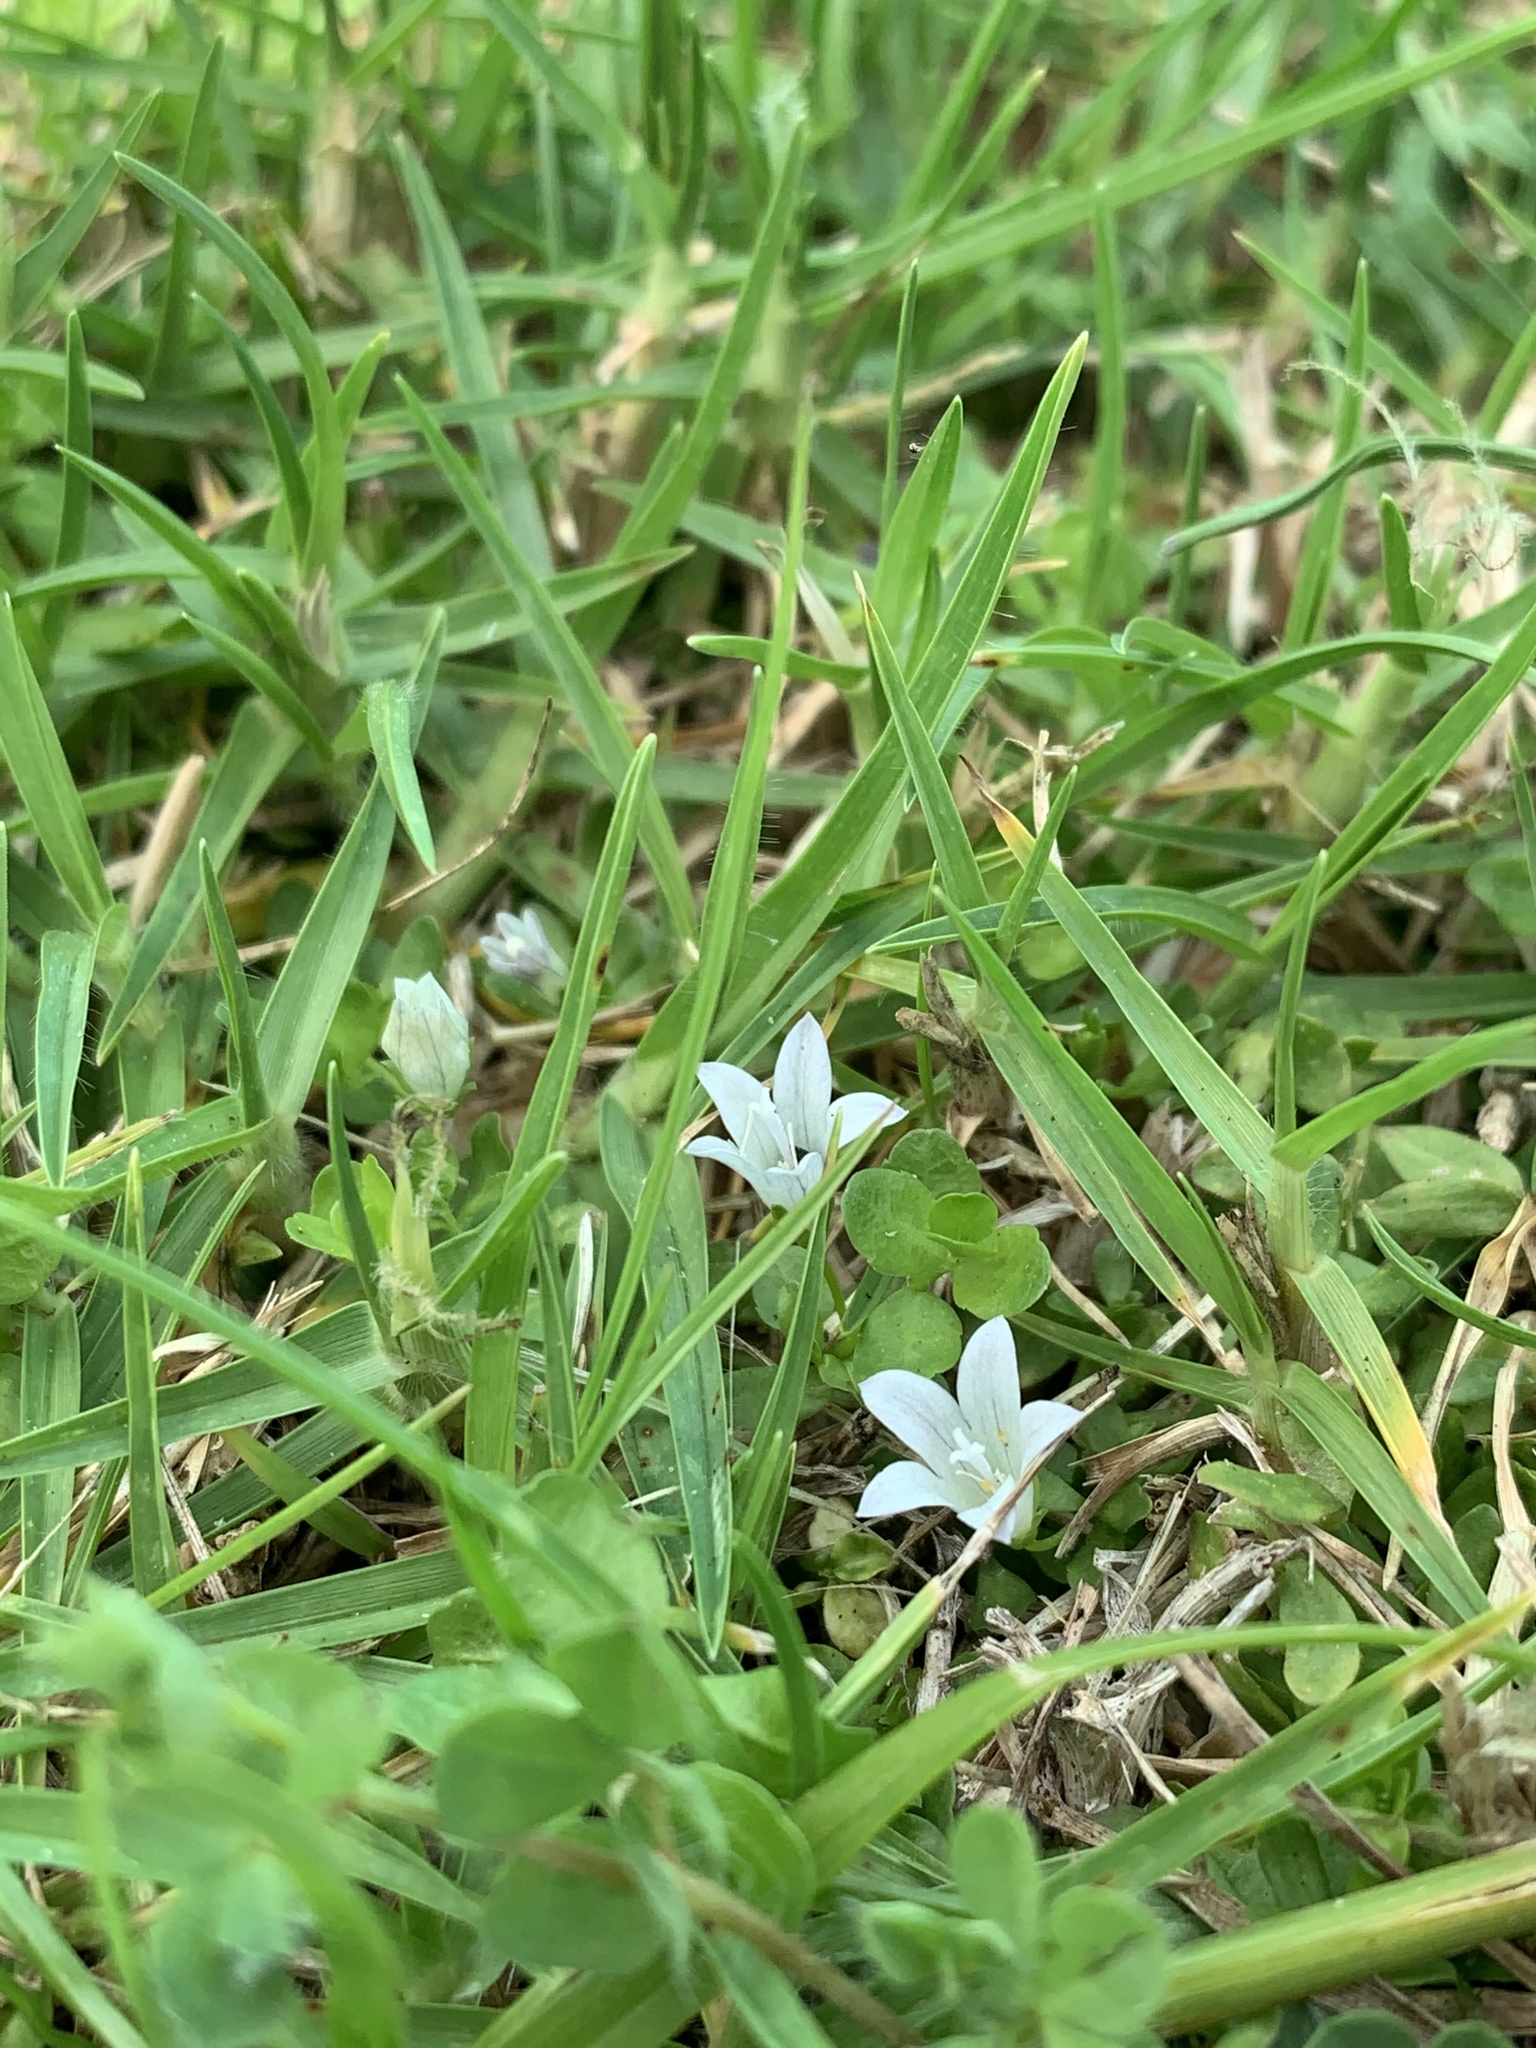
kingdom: Plantae
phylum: Tracheophyta
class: Magnoliopsida
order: Asterales
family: Campanulaceae
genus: Wahlenbergia
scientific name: Wahlenbergia procumbens
